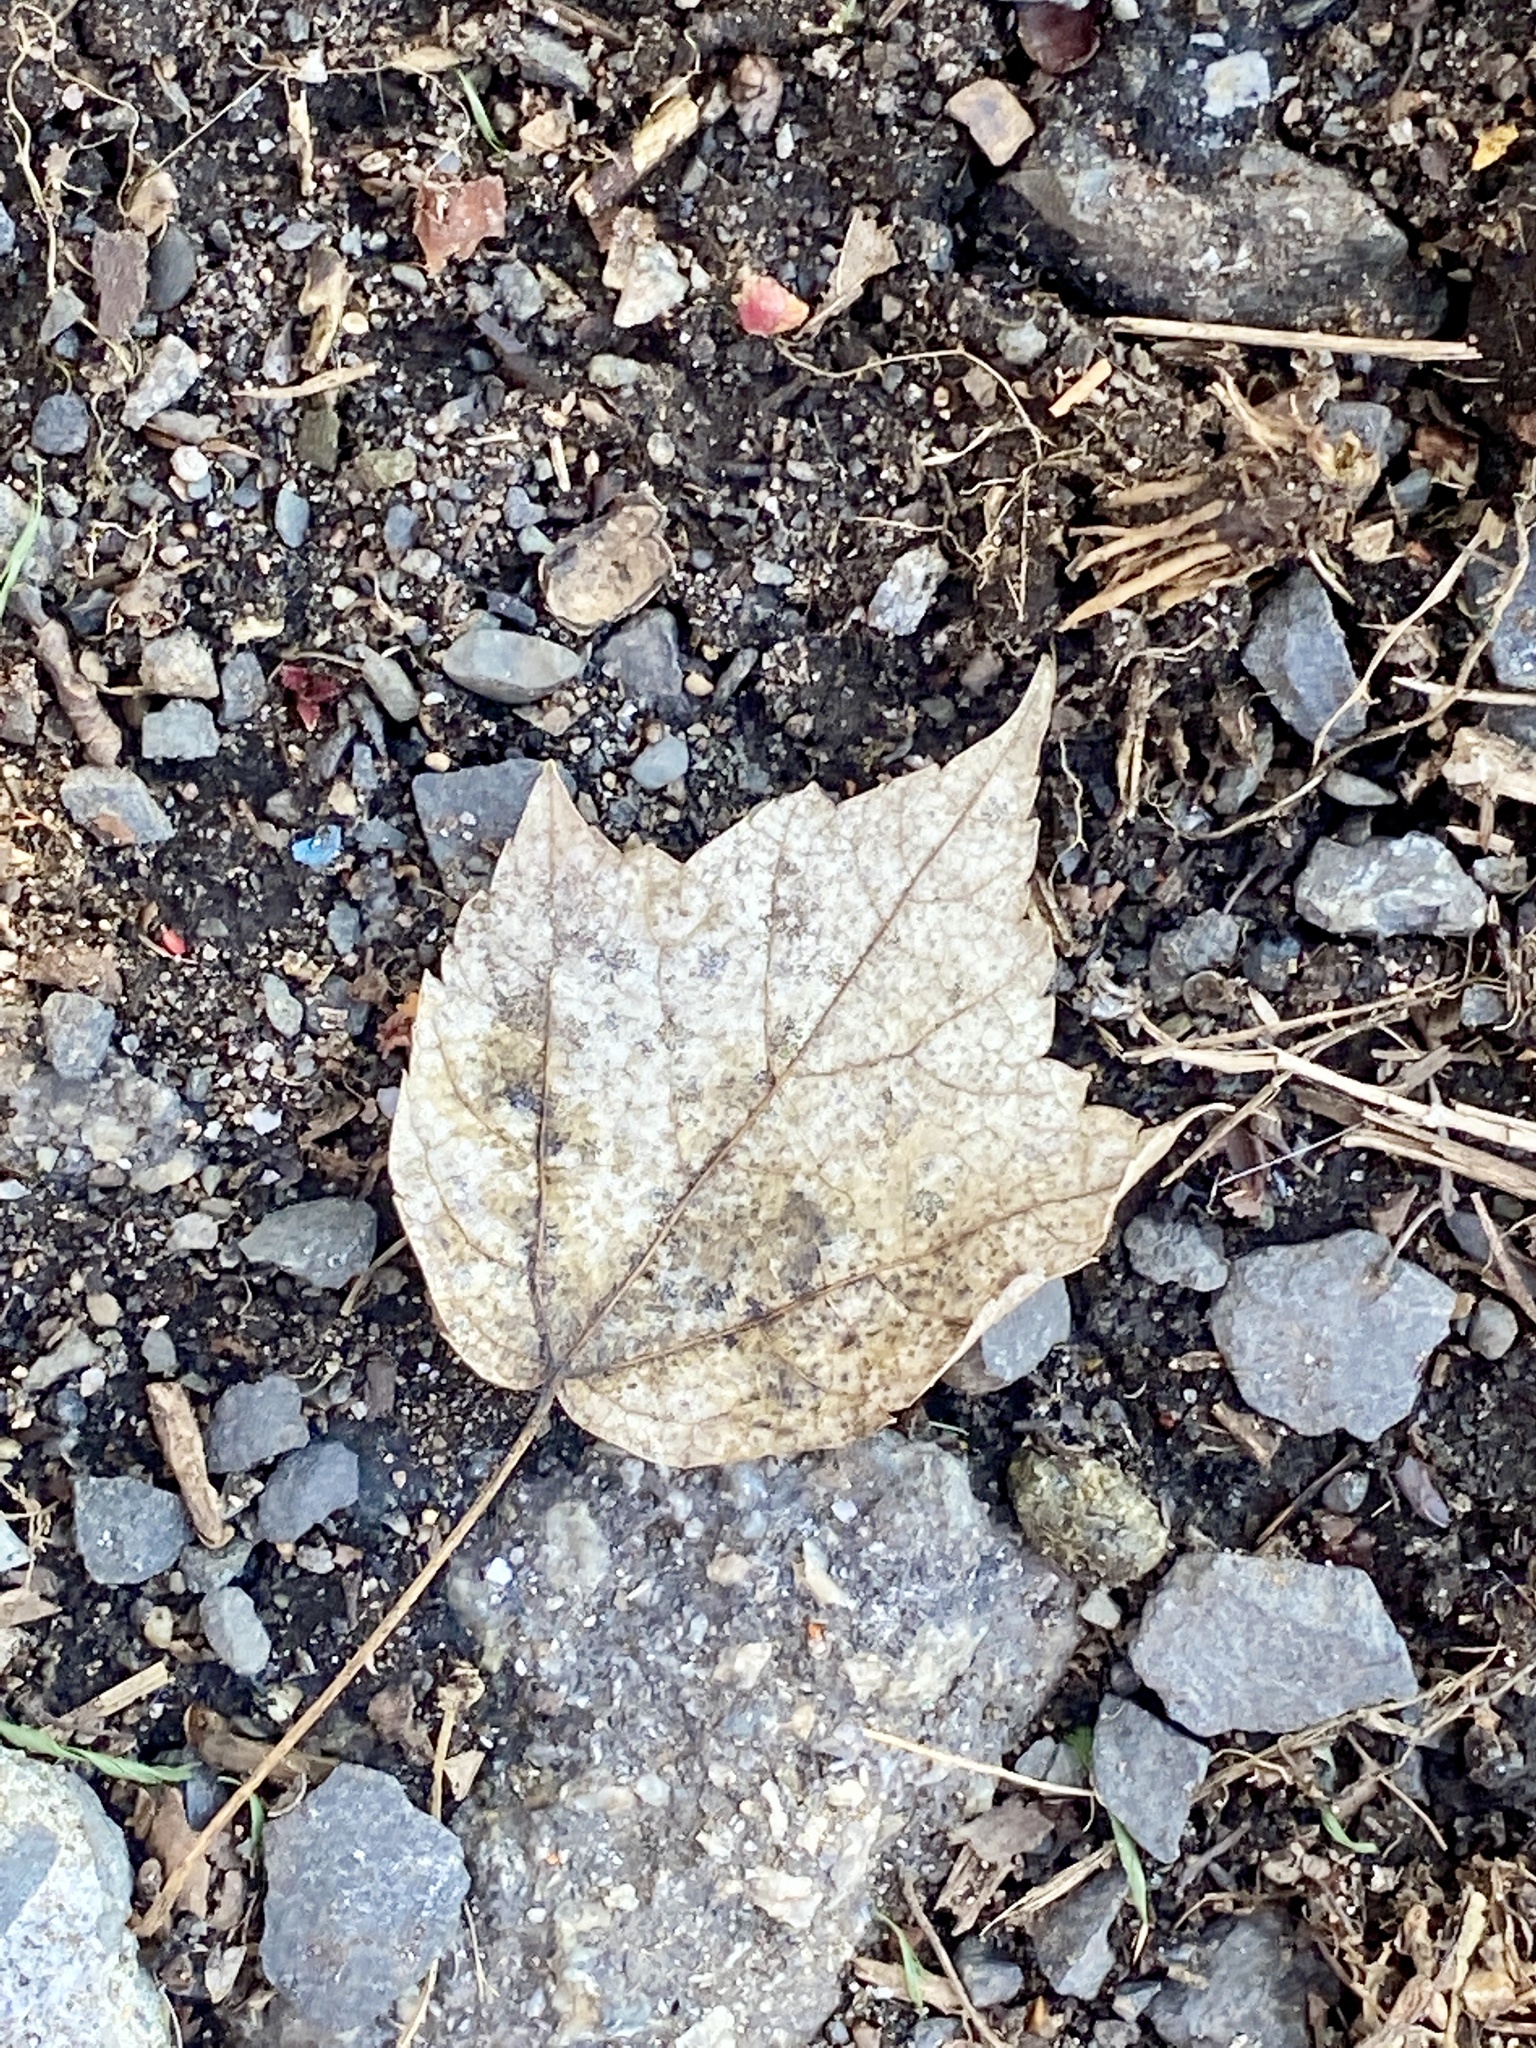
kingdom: Plantae
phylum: Tracheophyta
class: Magnoliopsida
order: Sapindales
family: Sapindaceae
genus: Acer
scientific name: Acer rubrum
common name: Red maple
